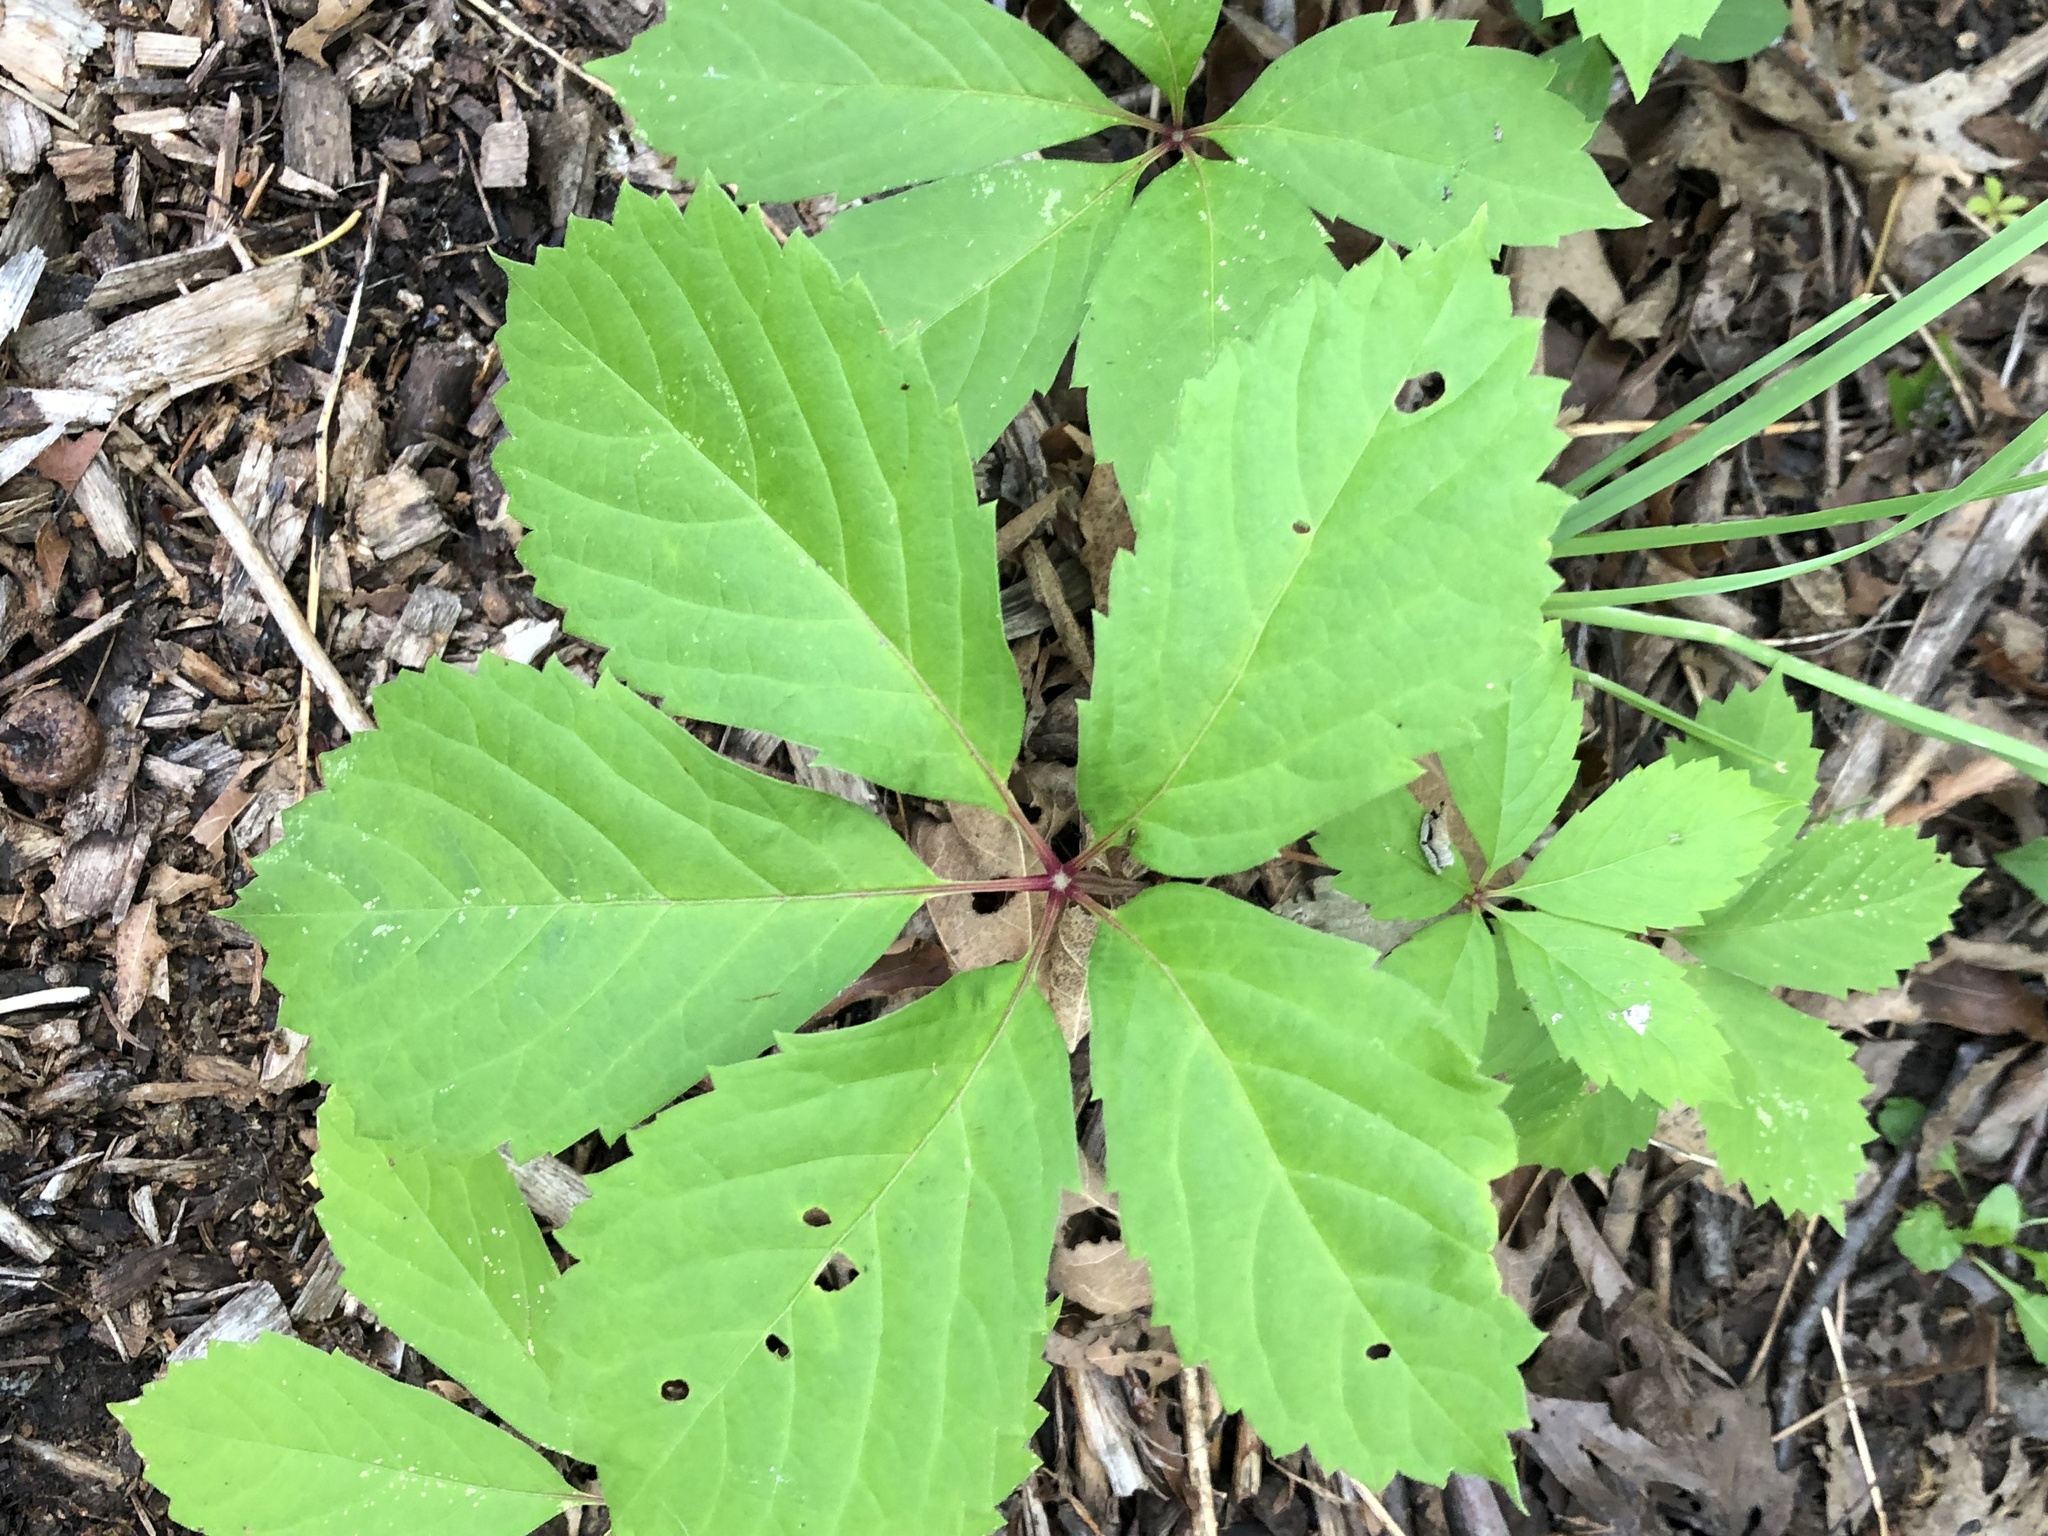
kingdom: Plantae
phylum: Tracheophyta
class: Magnoliopsida
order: Vitales
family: Vitaceae
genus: Parthenocissus
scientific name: Parthenocissus inserta
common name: False virginia-creeper
